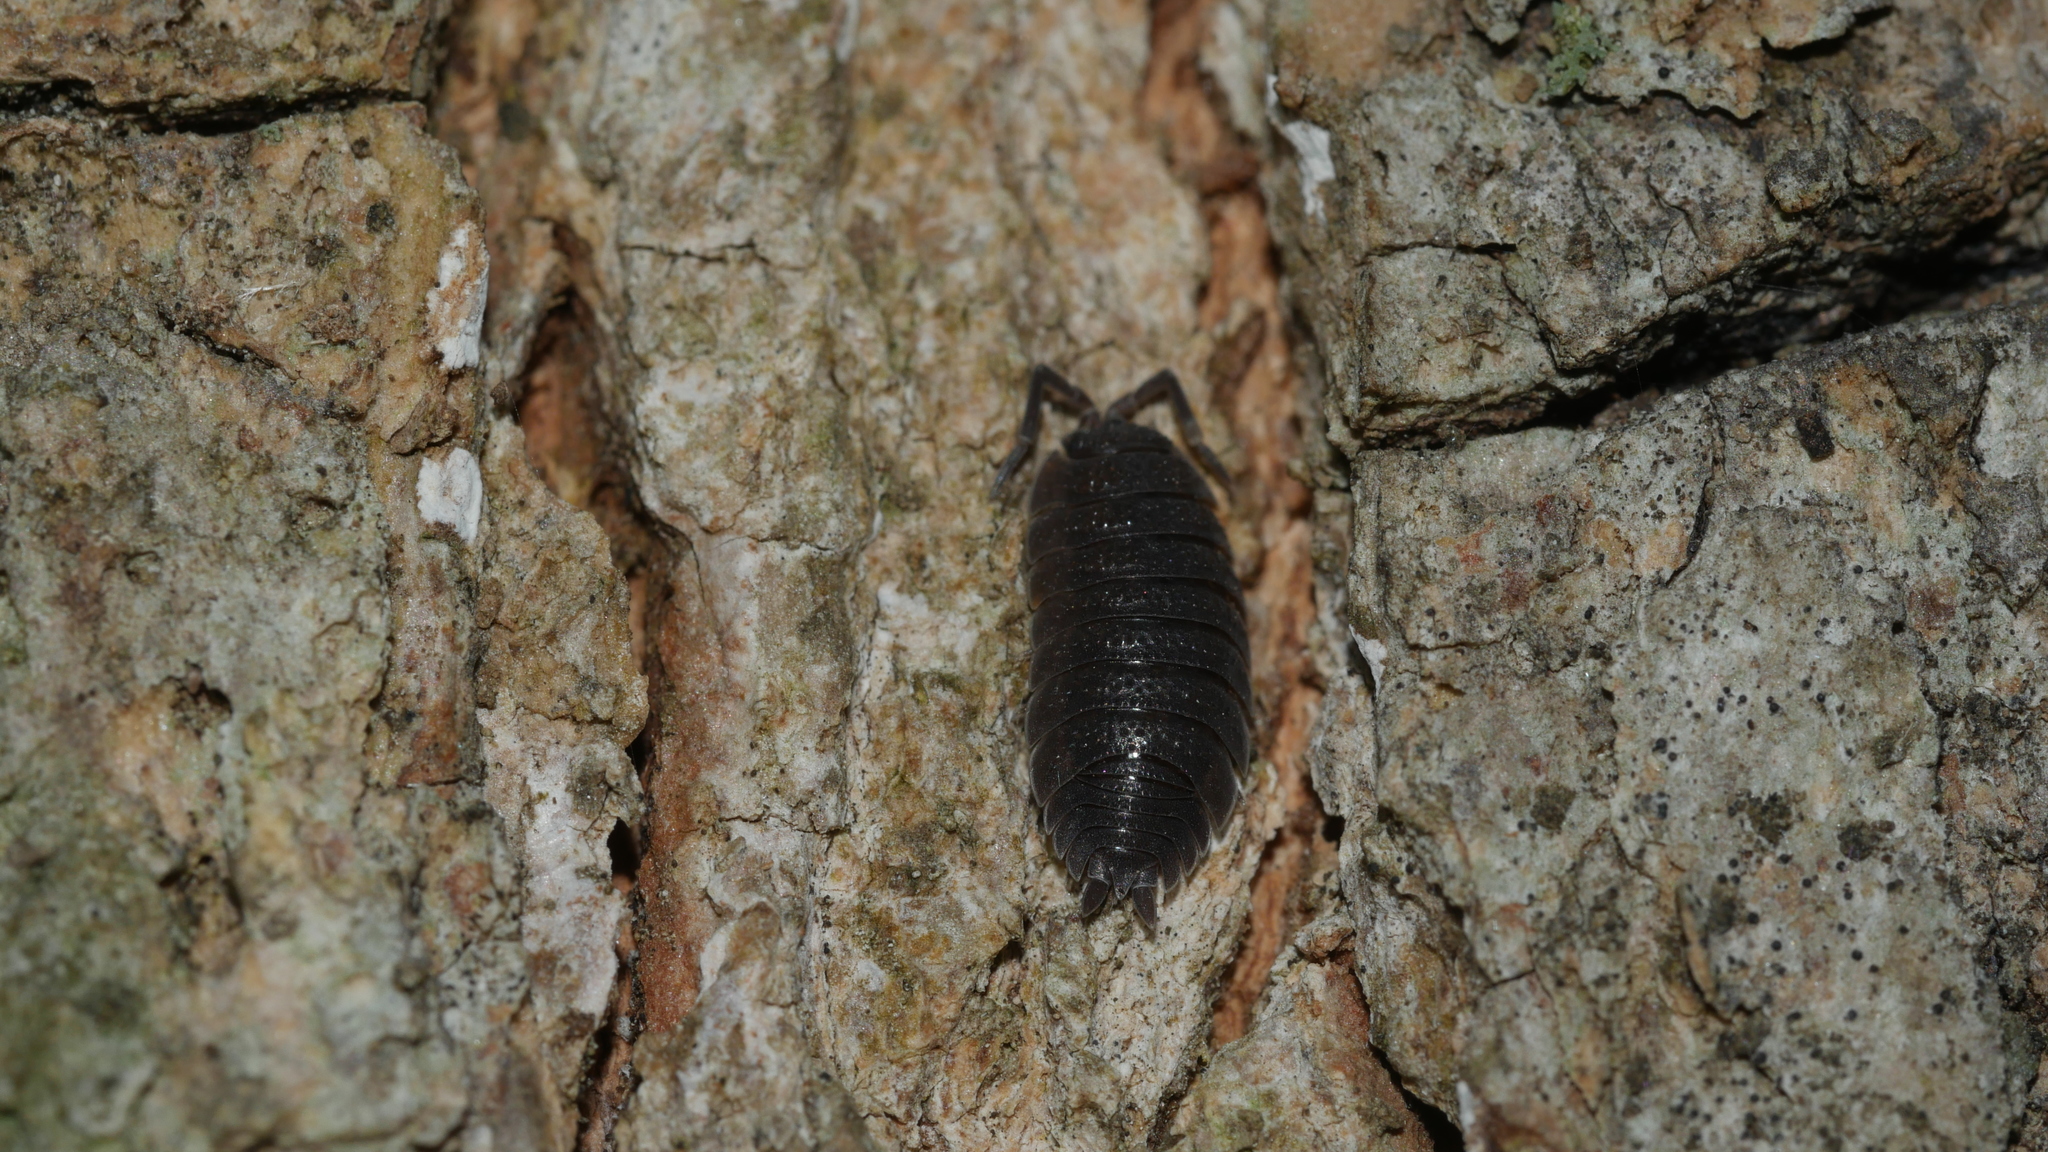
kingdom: Animalia
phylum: Arthropoda
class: Malacostraca
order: Isopoda
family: Porcellionidae
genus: Porcellio
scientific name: Porcellio scaber
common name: Common rough woodlouse
